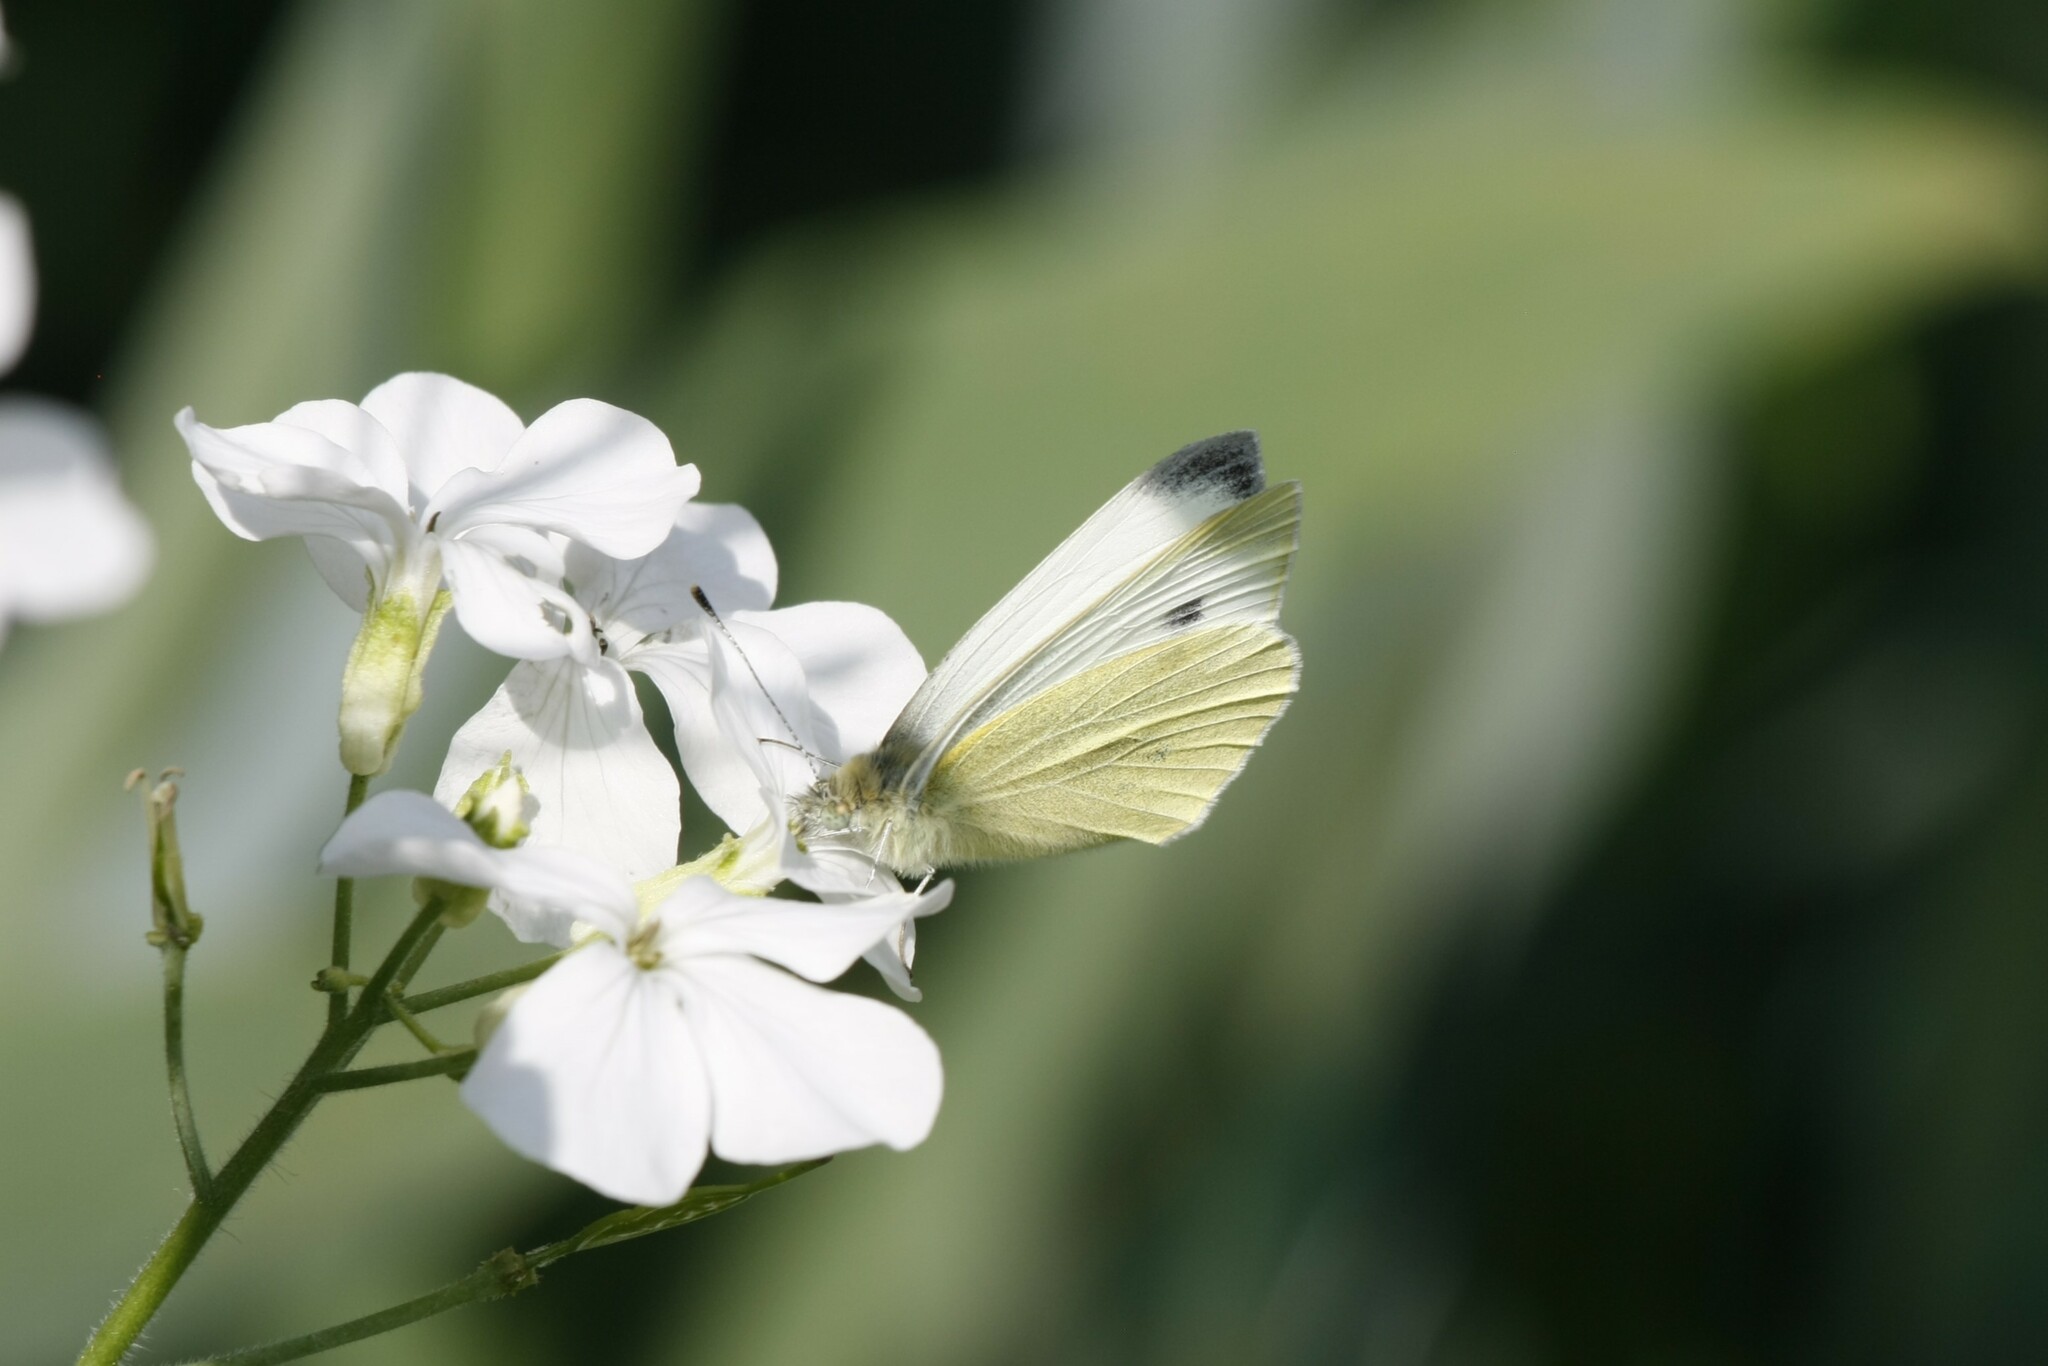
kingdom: Animalia
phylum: Arthropoda
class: Insecta
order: Lepidoptera
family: Pieridae
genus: Pieris
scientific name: Pieris mannii
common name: Southern small white
